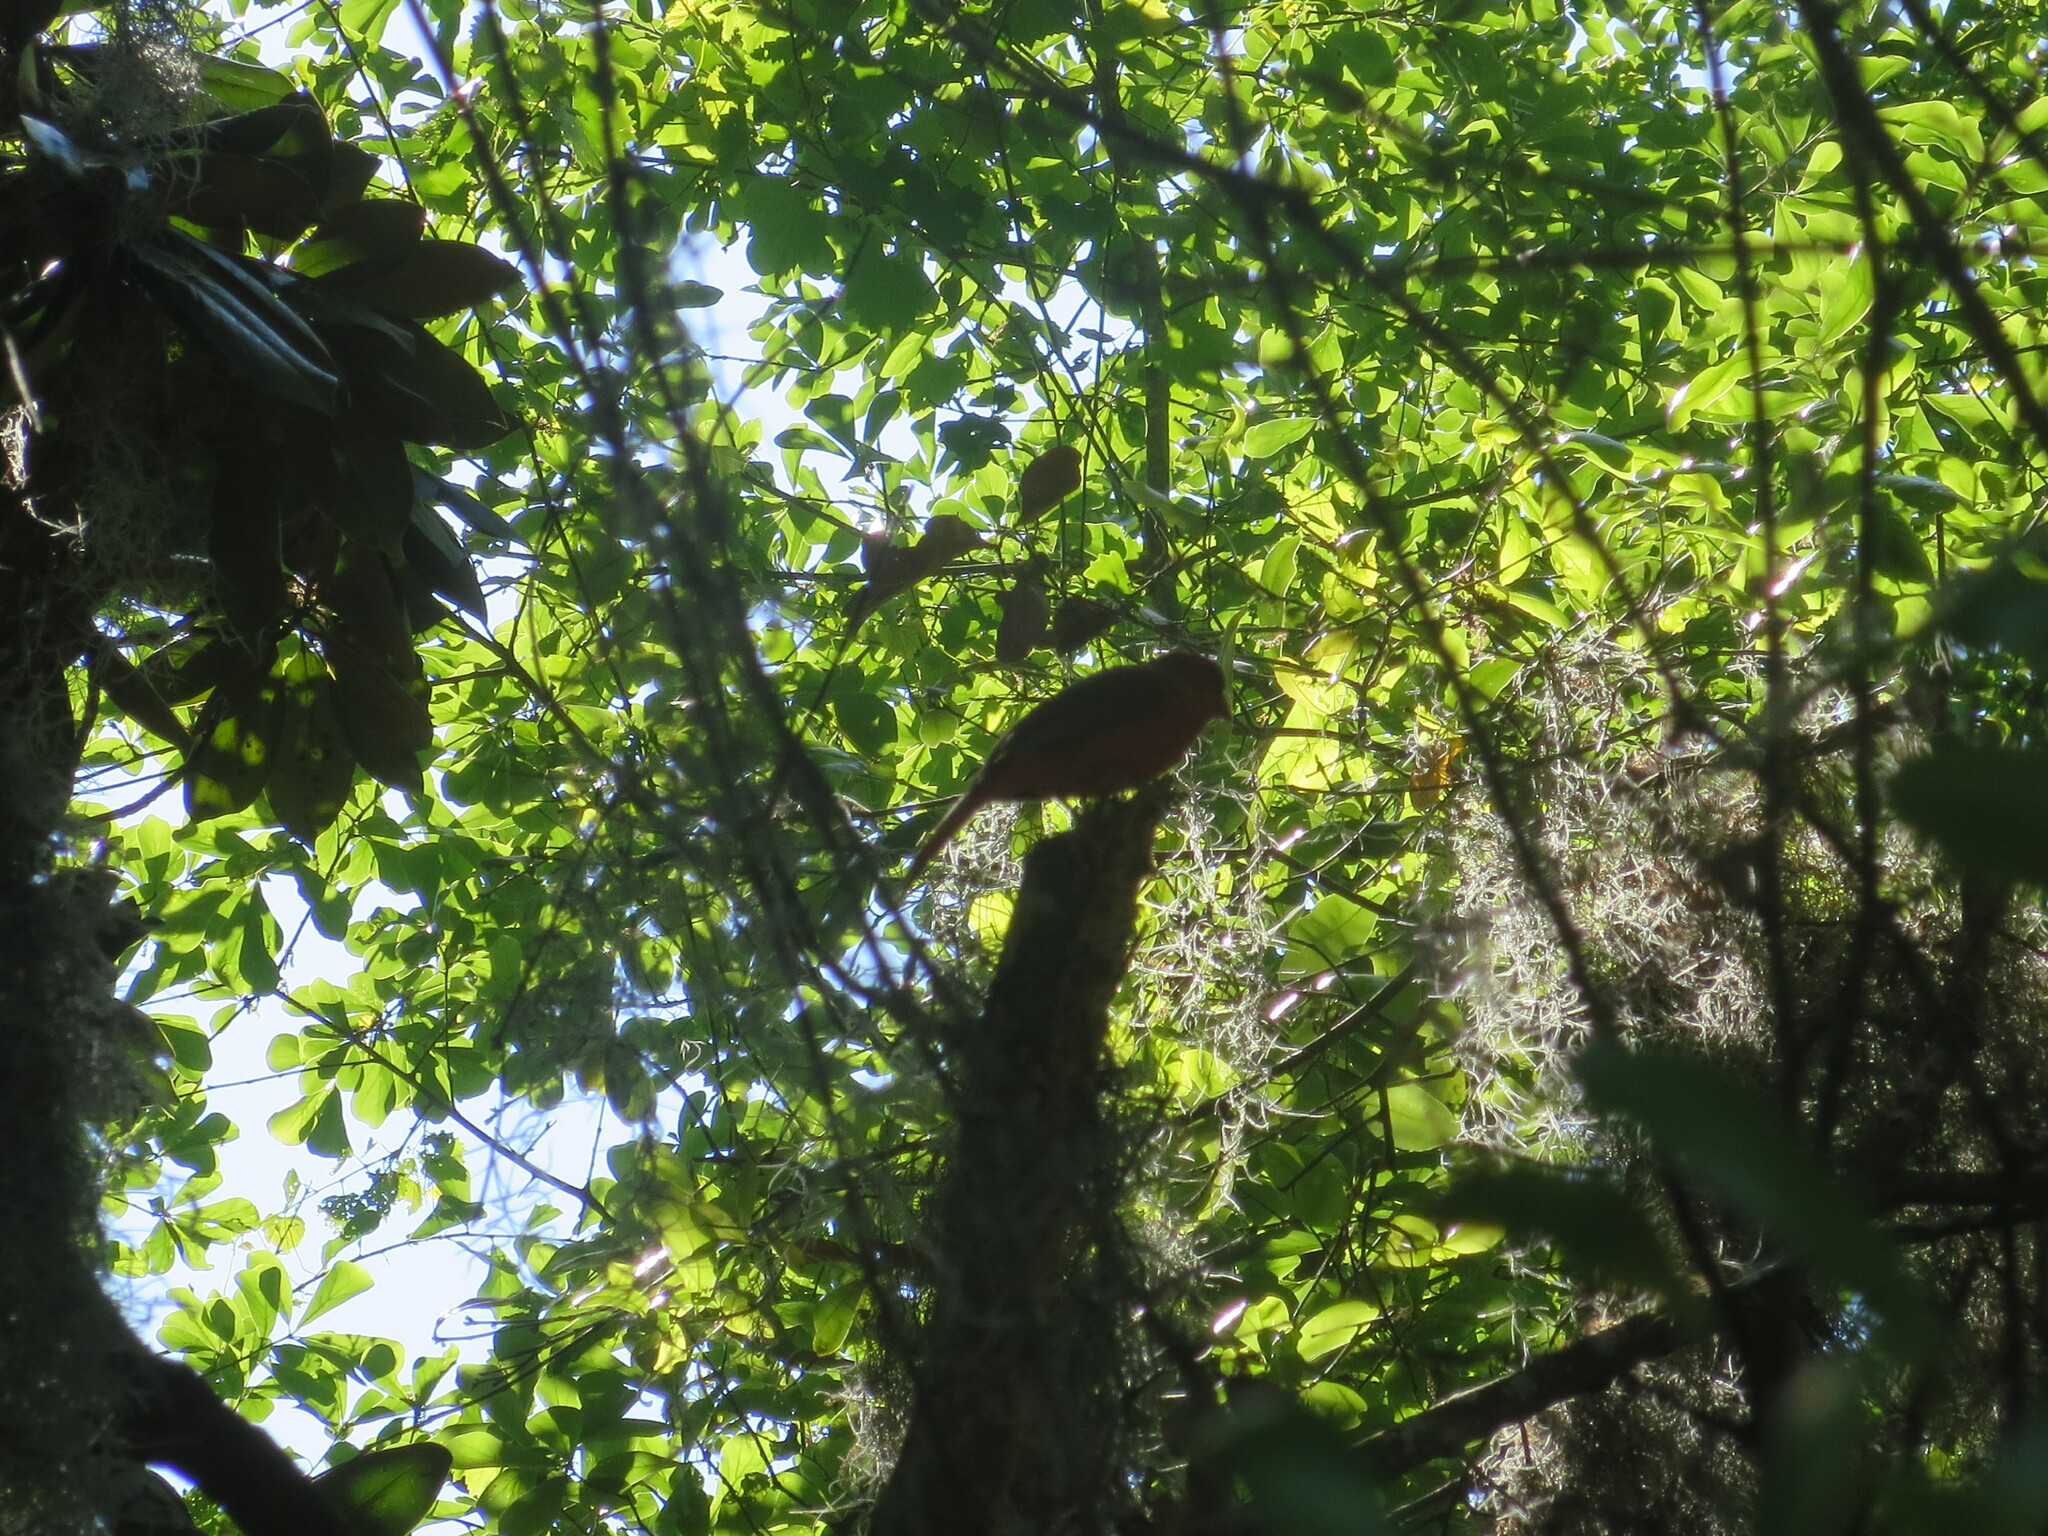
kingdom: Animalia
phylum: Chordata
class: Aves
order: Passeriformes
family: Cardinalidae
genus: Cardinalis
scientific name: Cardinalis cardinalis
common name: Northern cardinal
